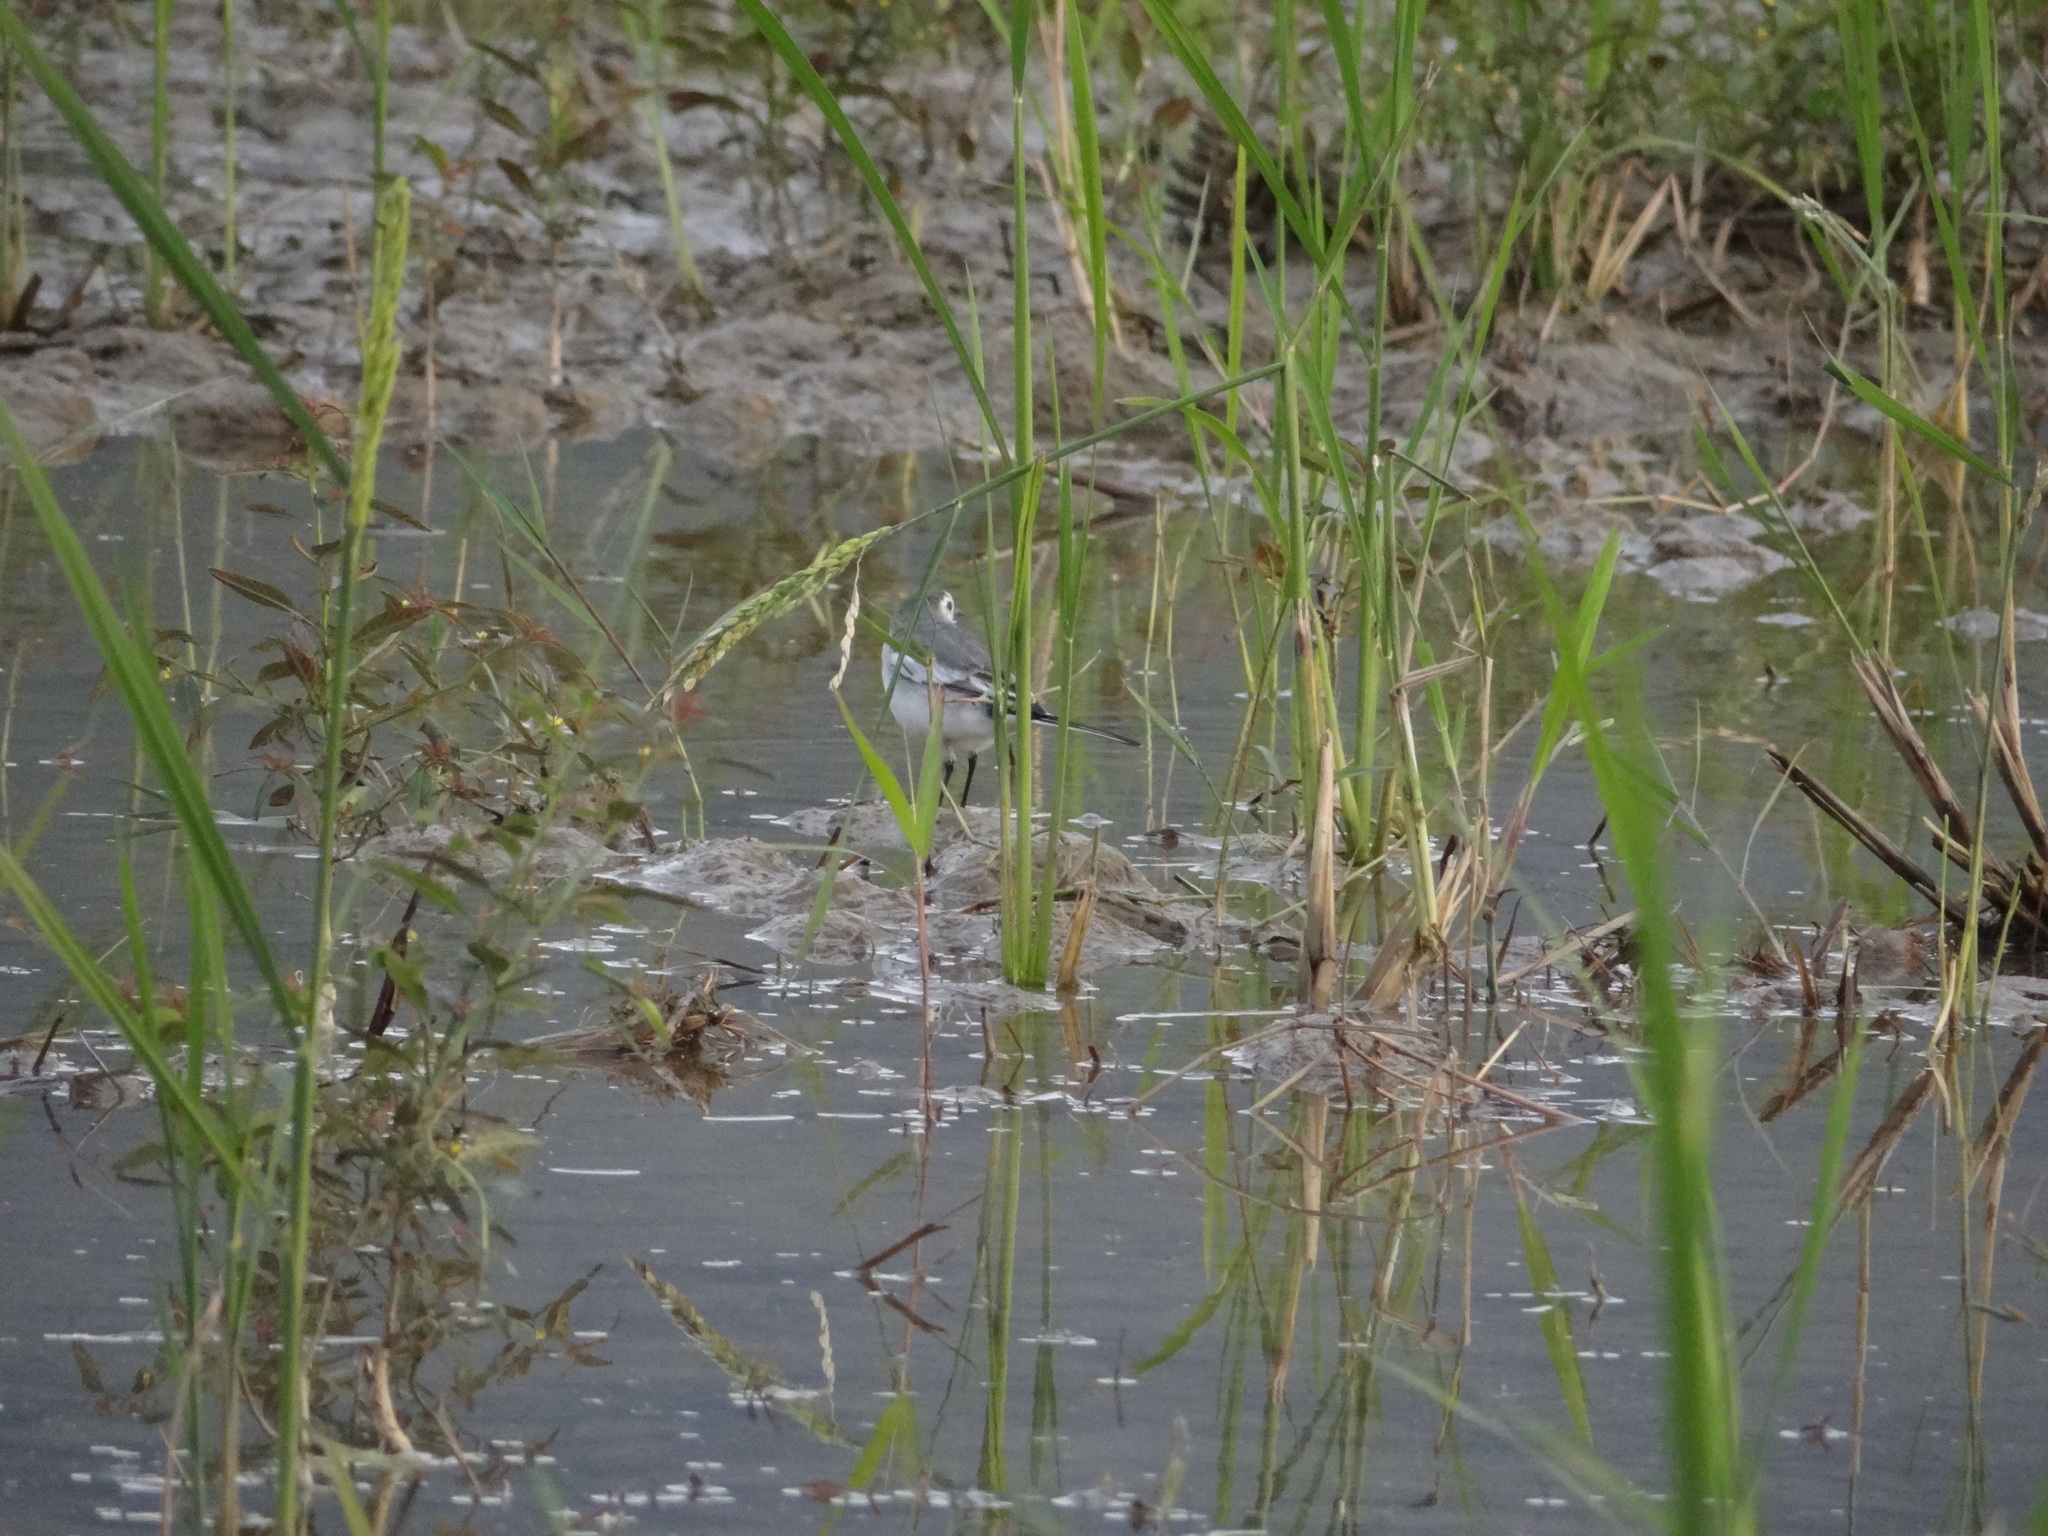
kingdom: Animalia
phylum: Chordata
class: Aves
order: Passeriformes
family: Motacillidae
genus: Motacilla
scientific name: Motacilla alba
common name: White wagtail
